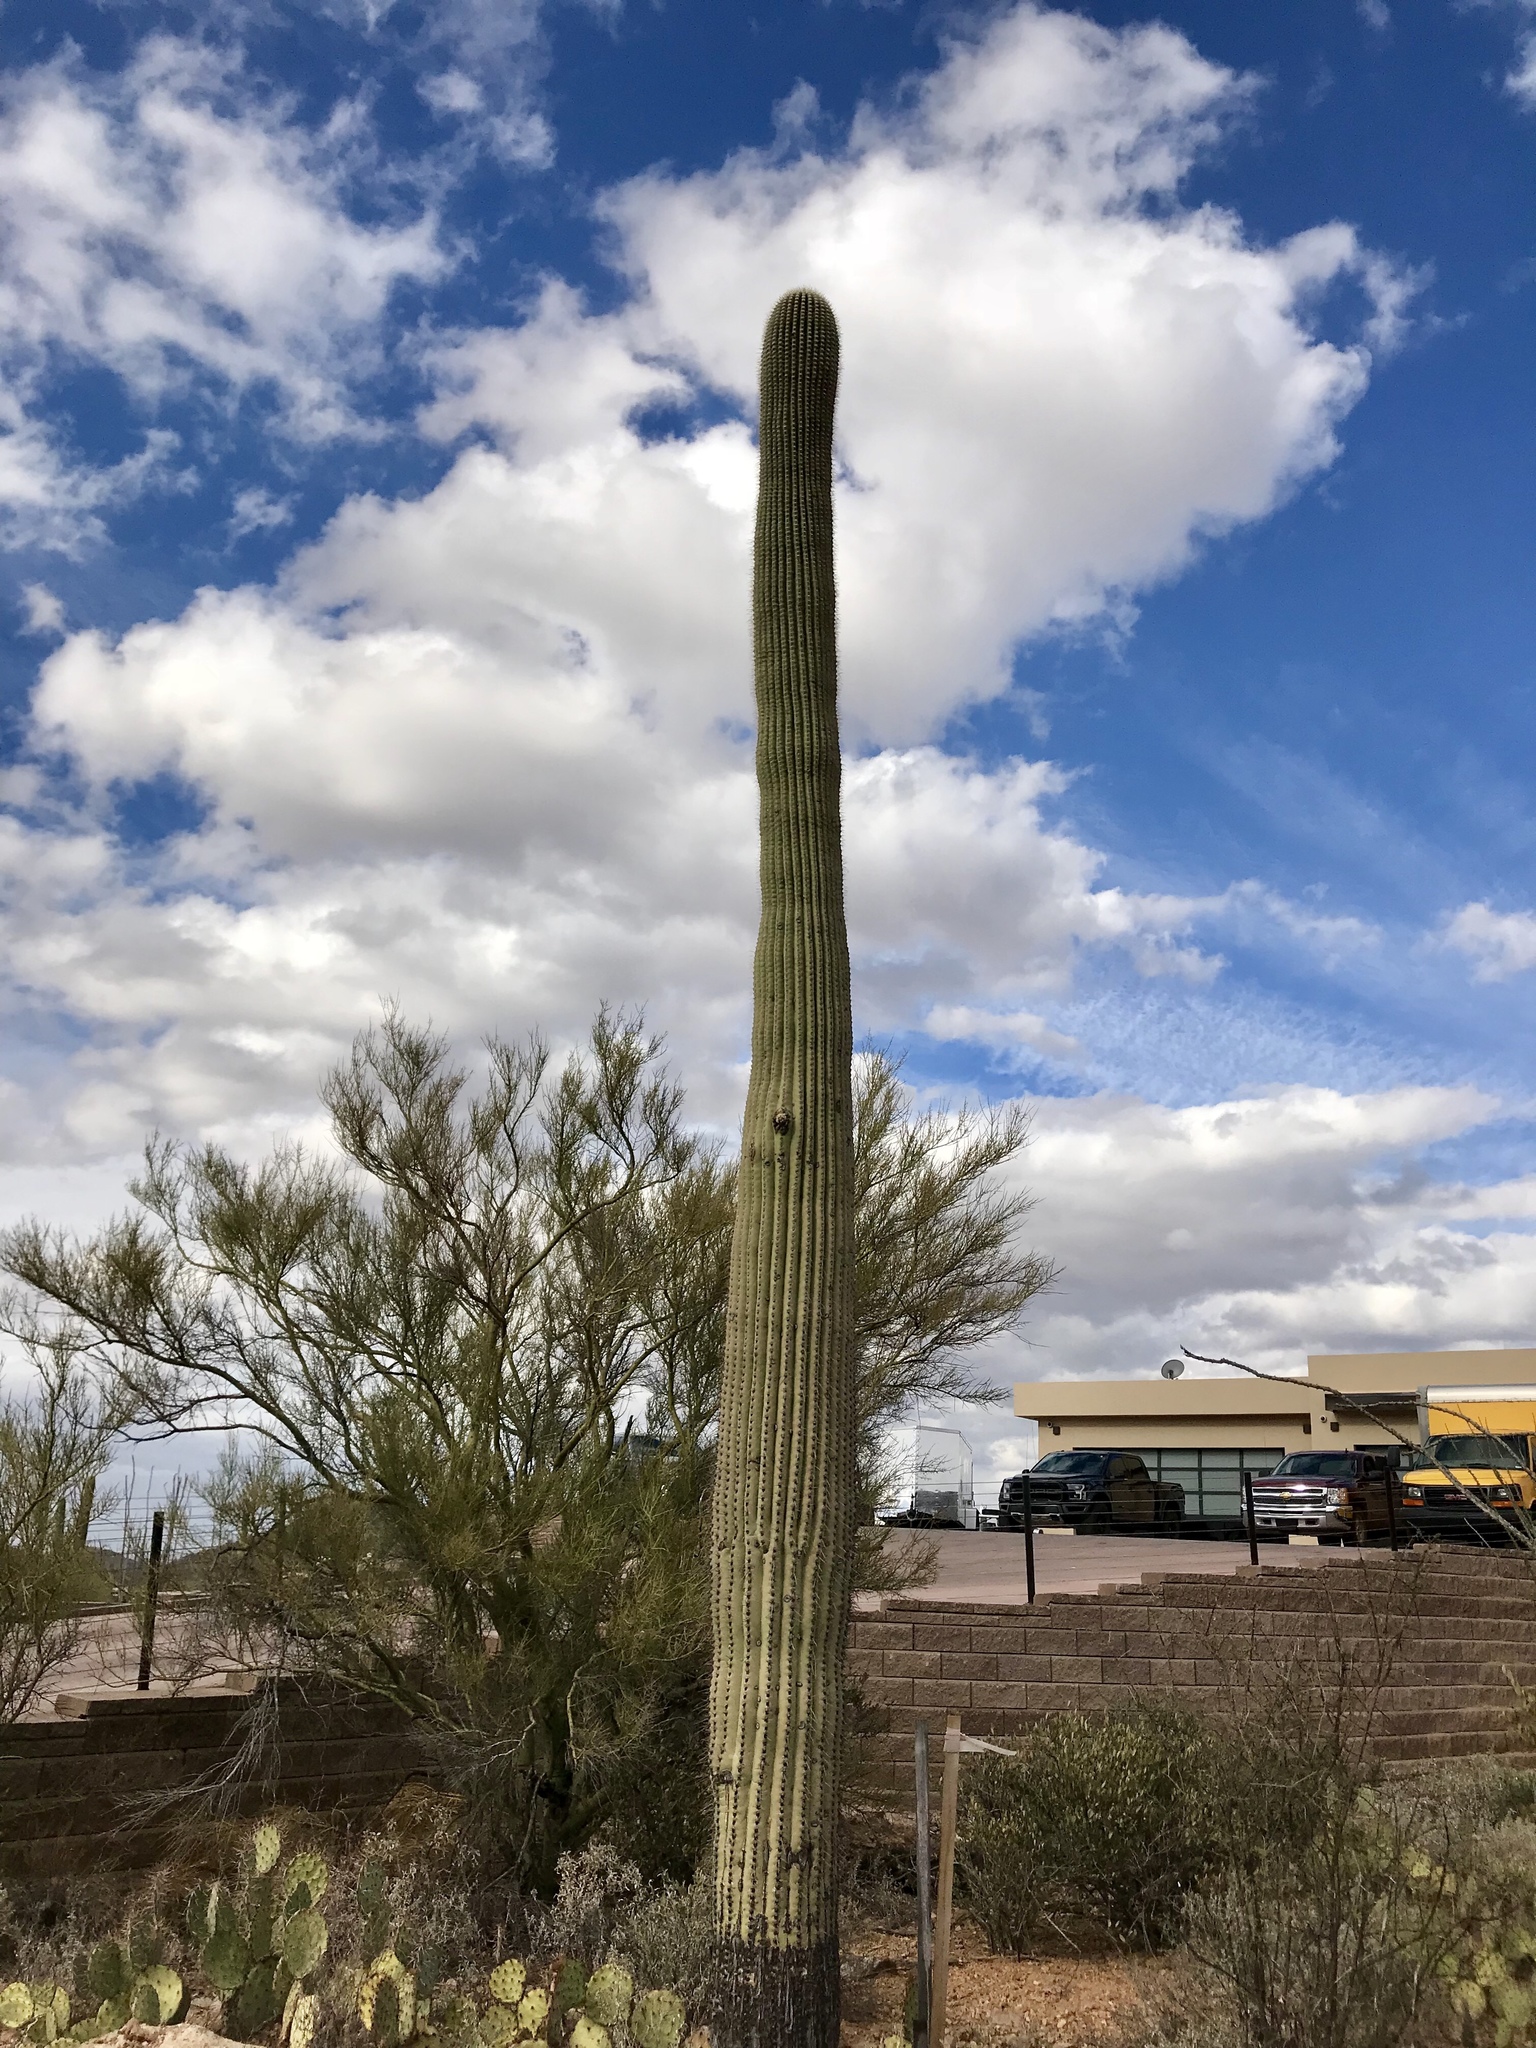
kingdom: Plantae
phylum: Tracheophyta
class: Magnoliopsida
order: Caryophyllales
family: Cactaceae
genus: Carnegiea
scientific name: Carnegiea gigantea
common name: Saguaro
